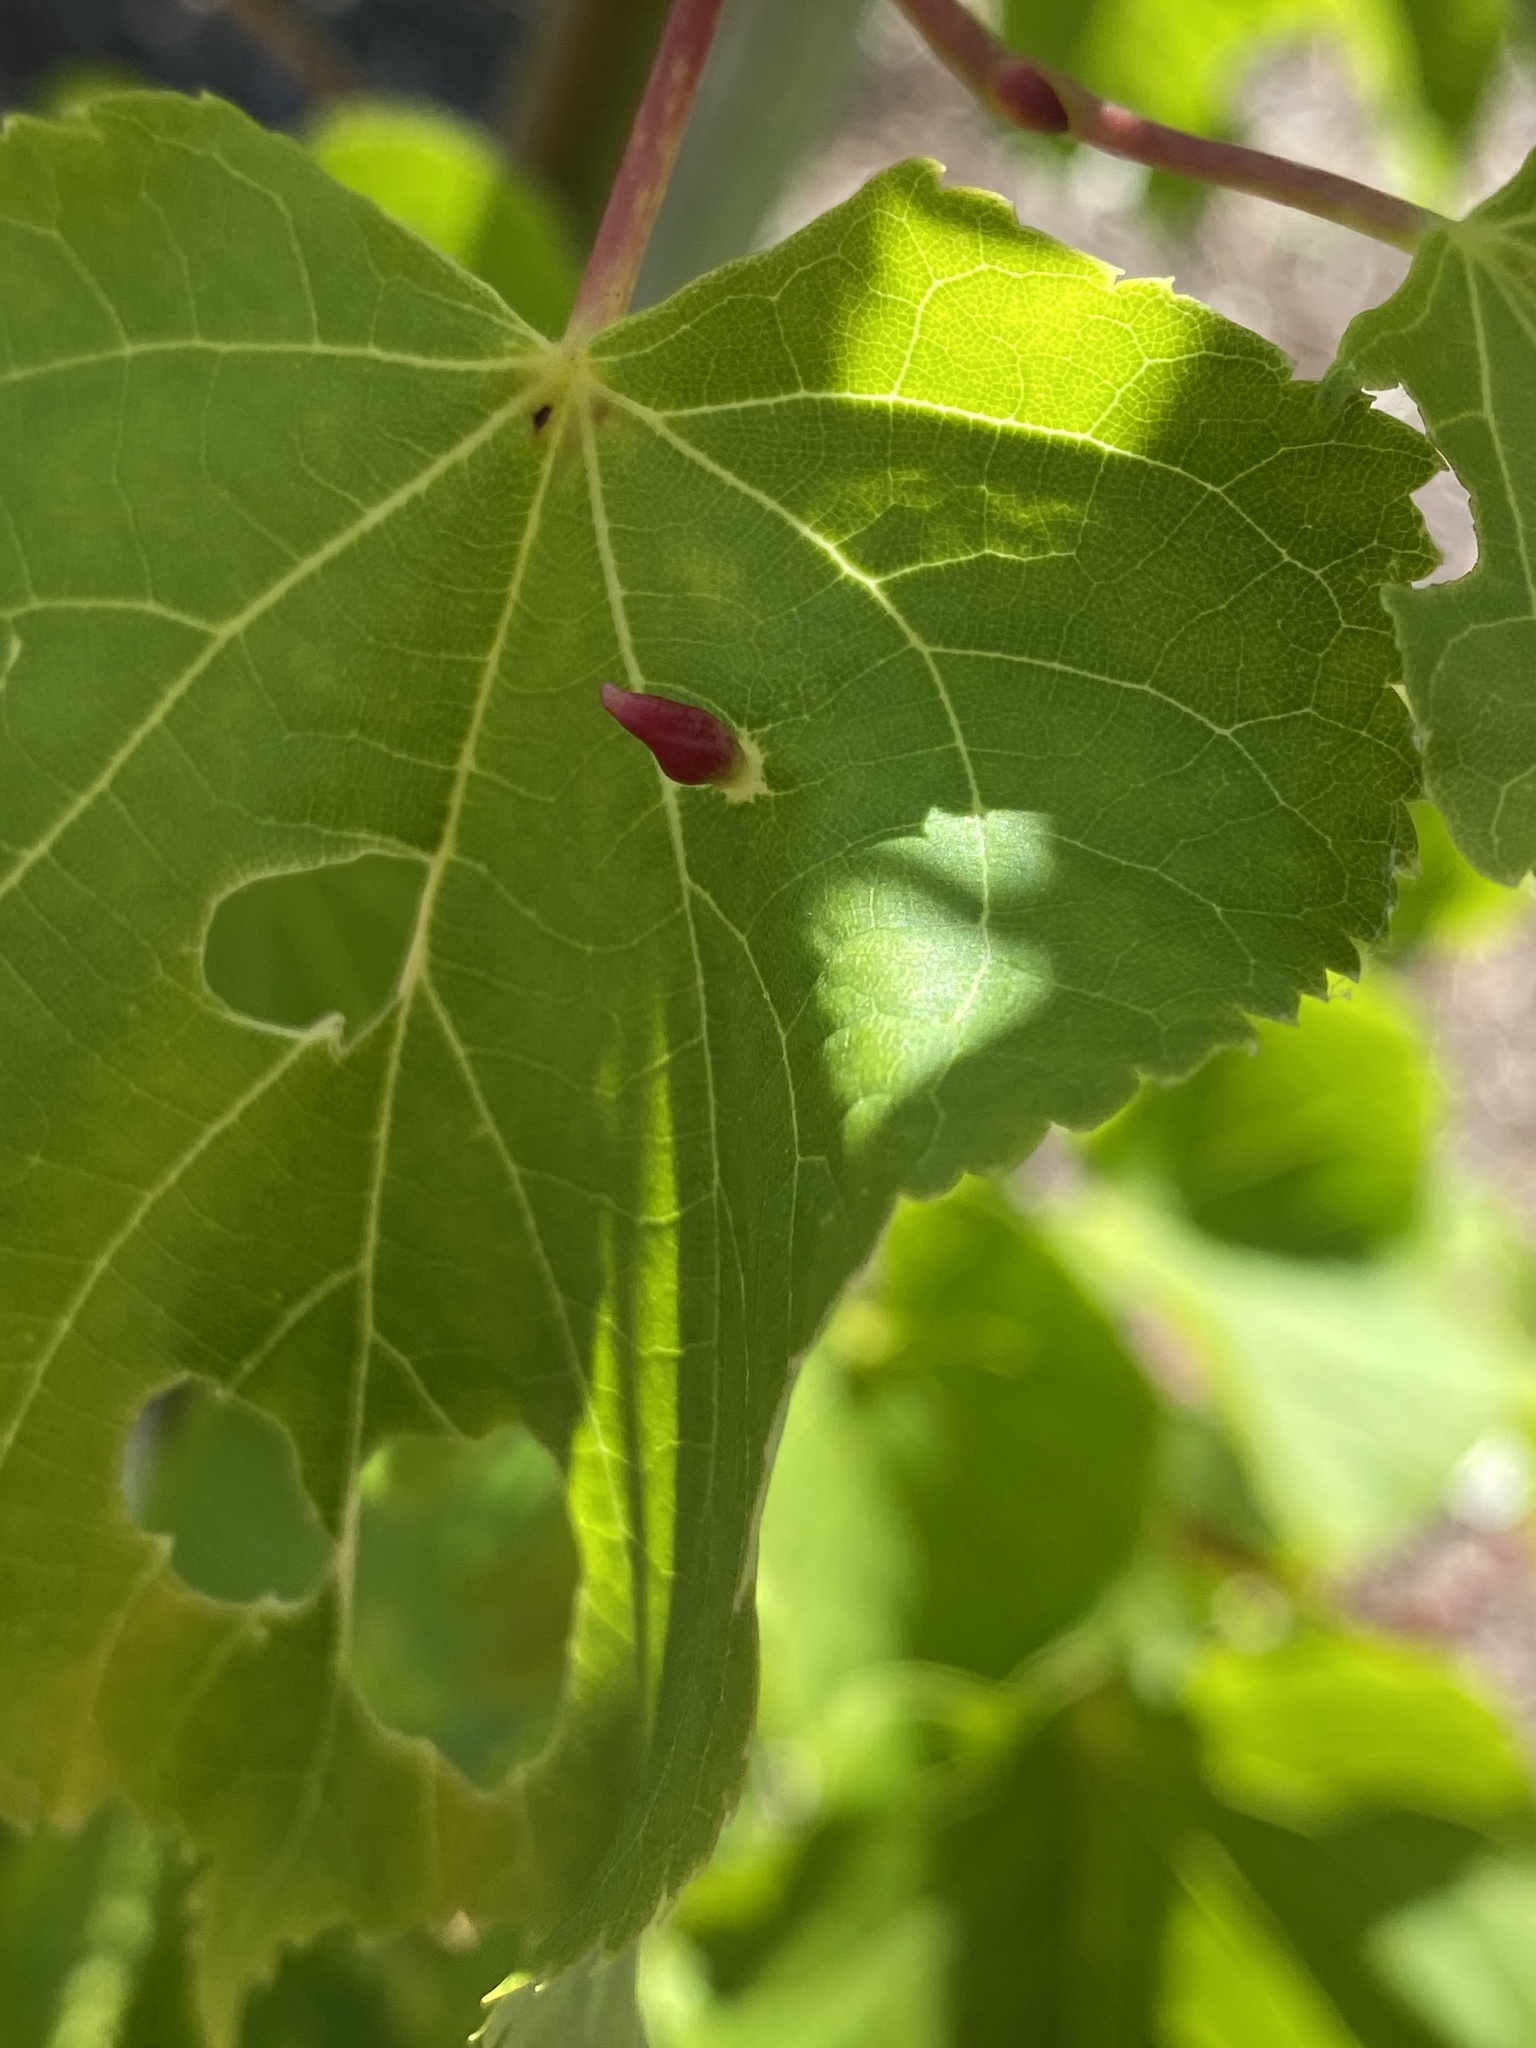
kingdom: Animalia
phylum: Arthropoda
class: Arachnida
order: Trombidiformes
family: Eriophyidae
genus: Eriophyes
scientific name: Eriophyes tiliae
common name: Red nail gall mite
